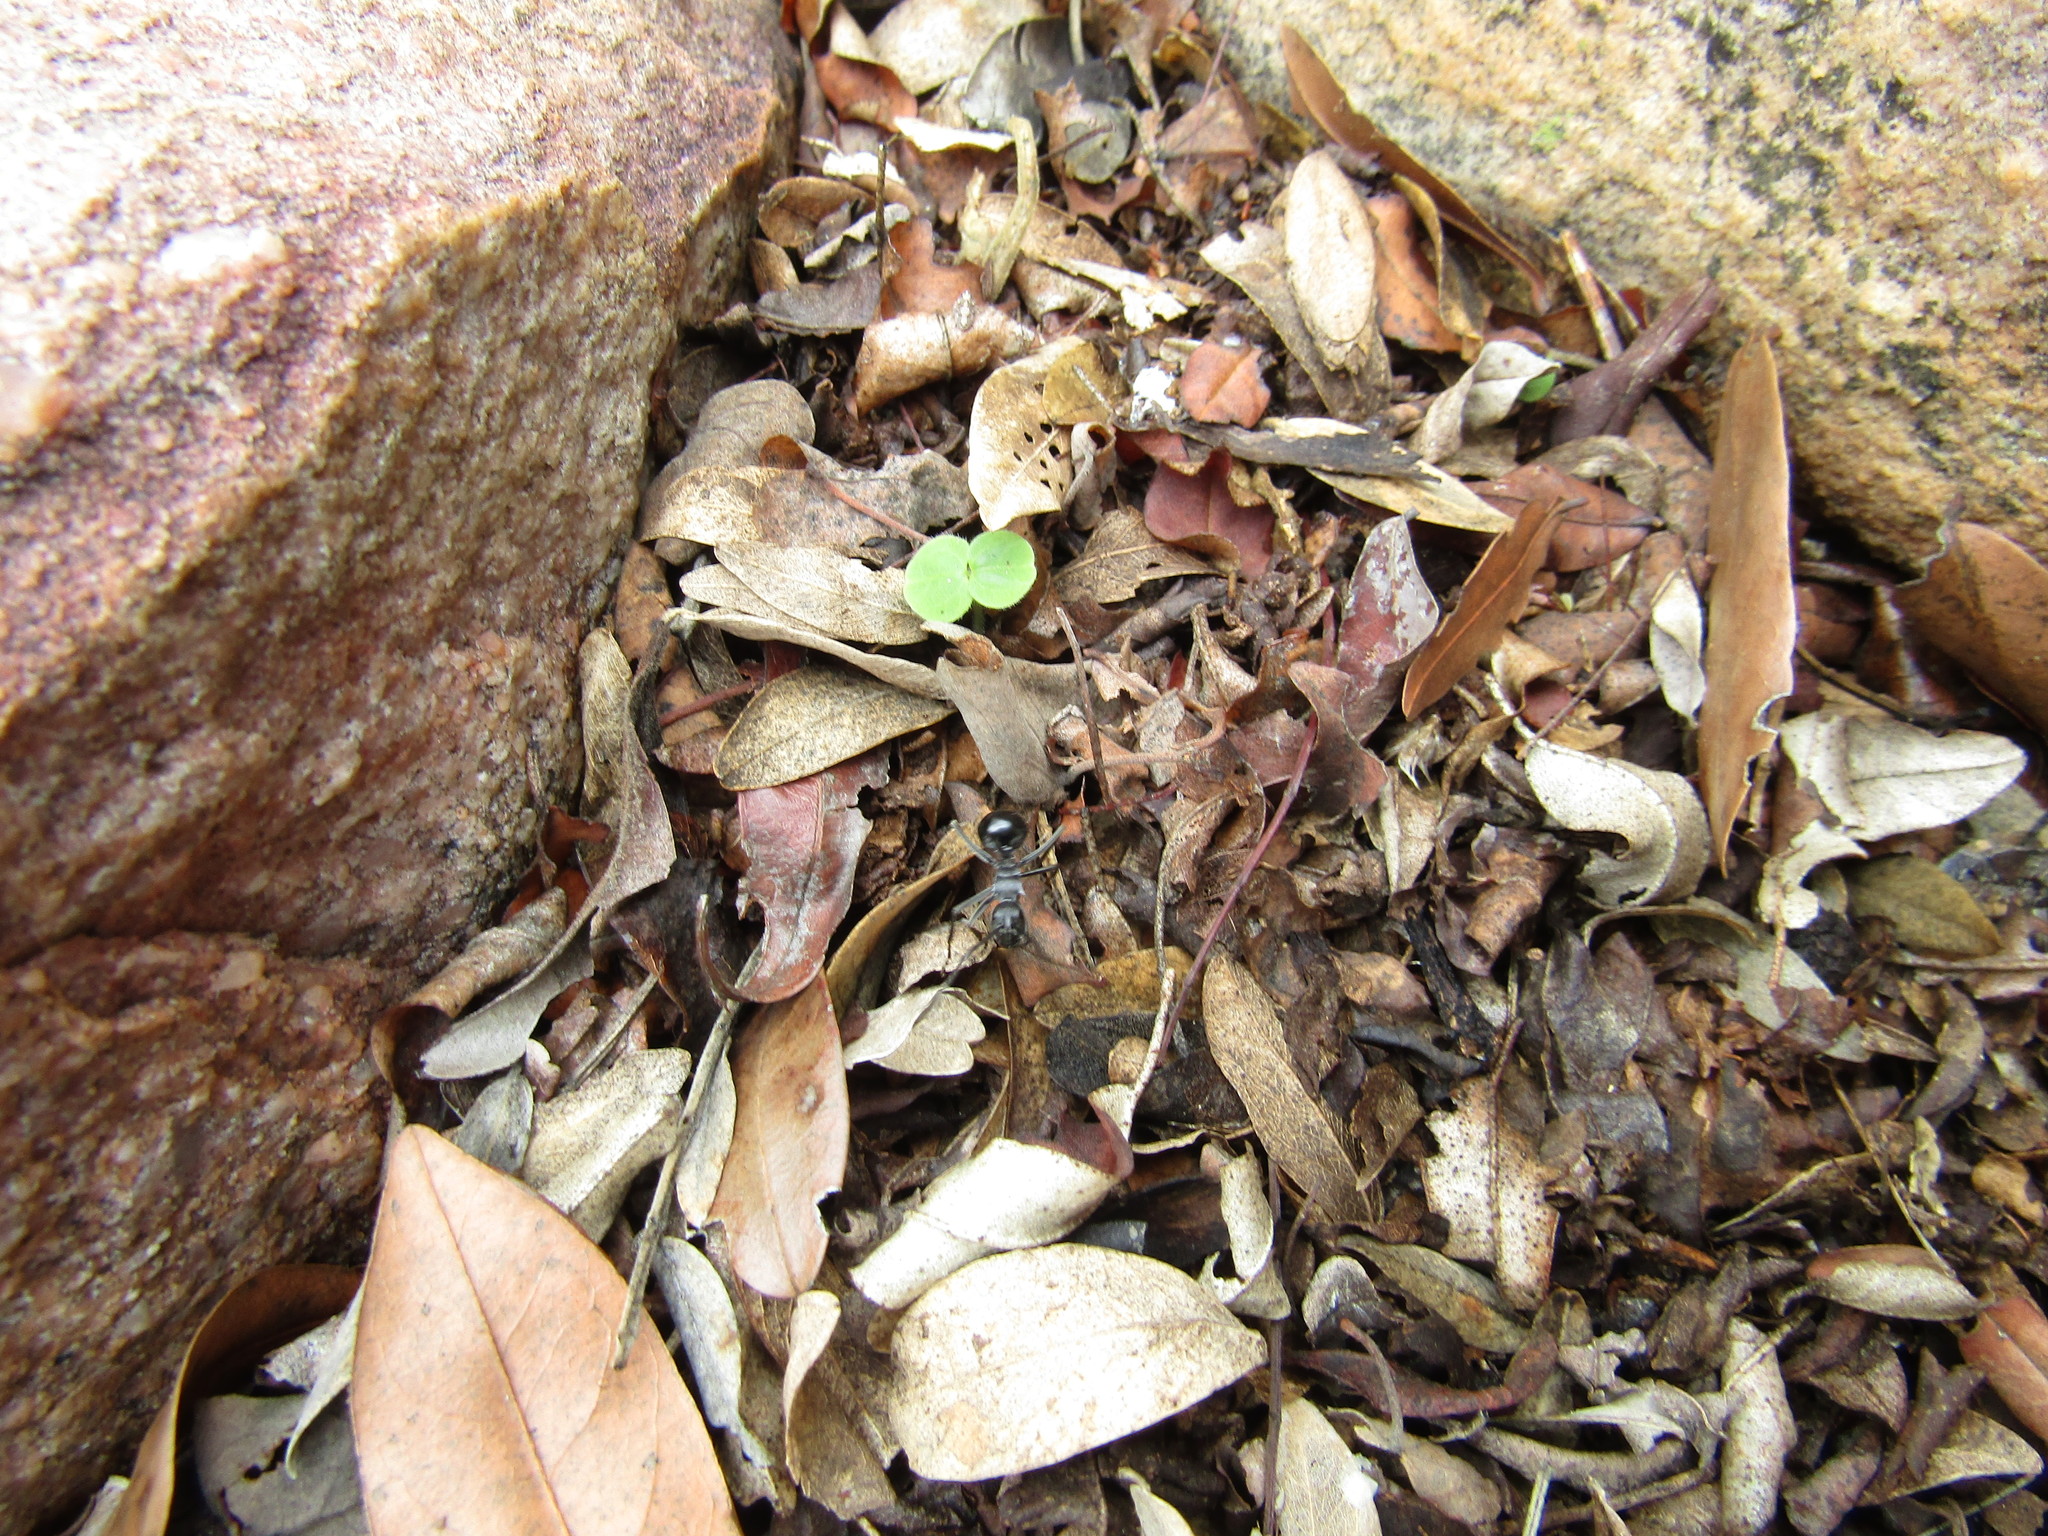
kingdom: Animalia
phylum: Arthropoda
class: Insecta
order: Hymenoptera
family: Formicidae
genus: Polyrhachis
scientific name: Polyrhachis gagates
